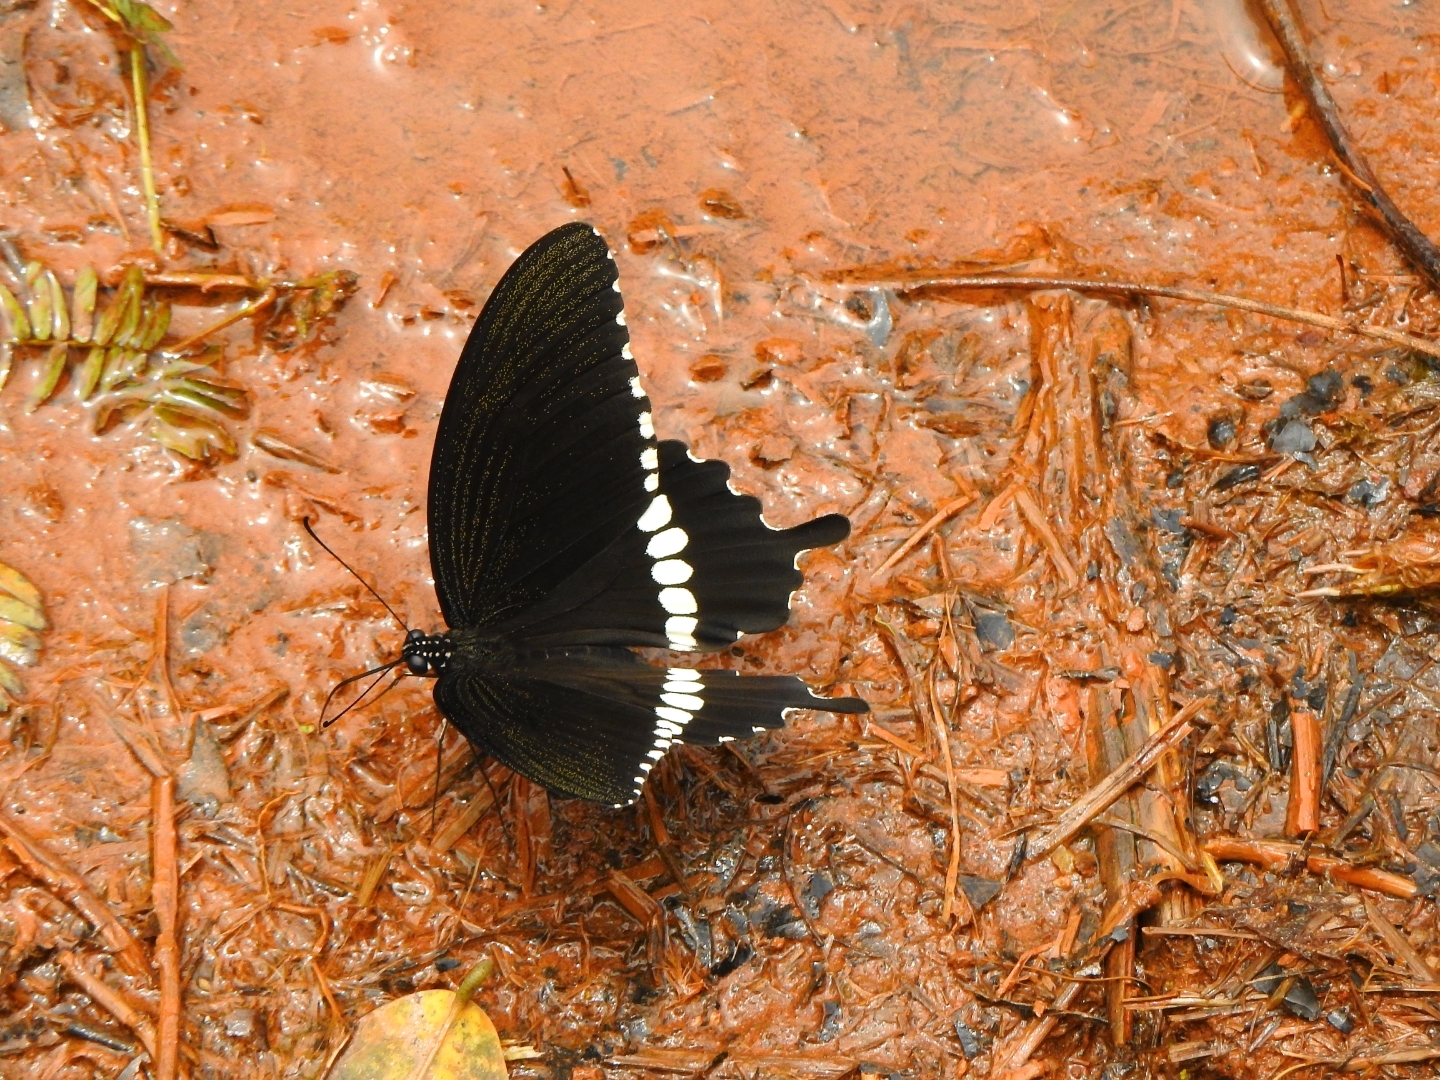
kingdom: Animalia
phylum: Arthropoda
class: Insecta
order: Lepidoptera
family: Papilionidae
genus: Papilio
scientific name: Papilio polytes
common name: Common mormon
